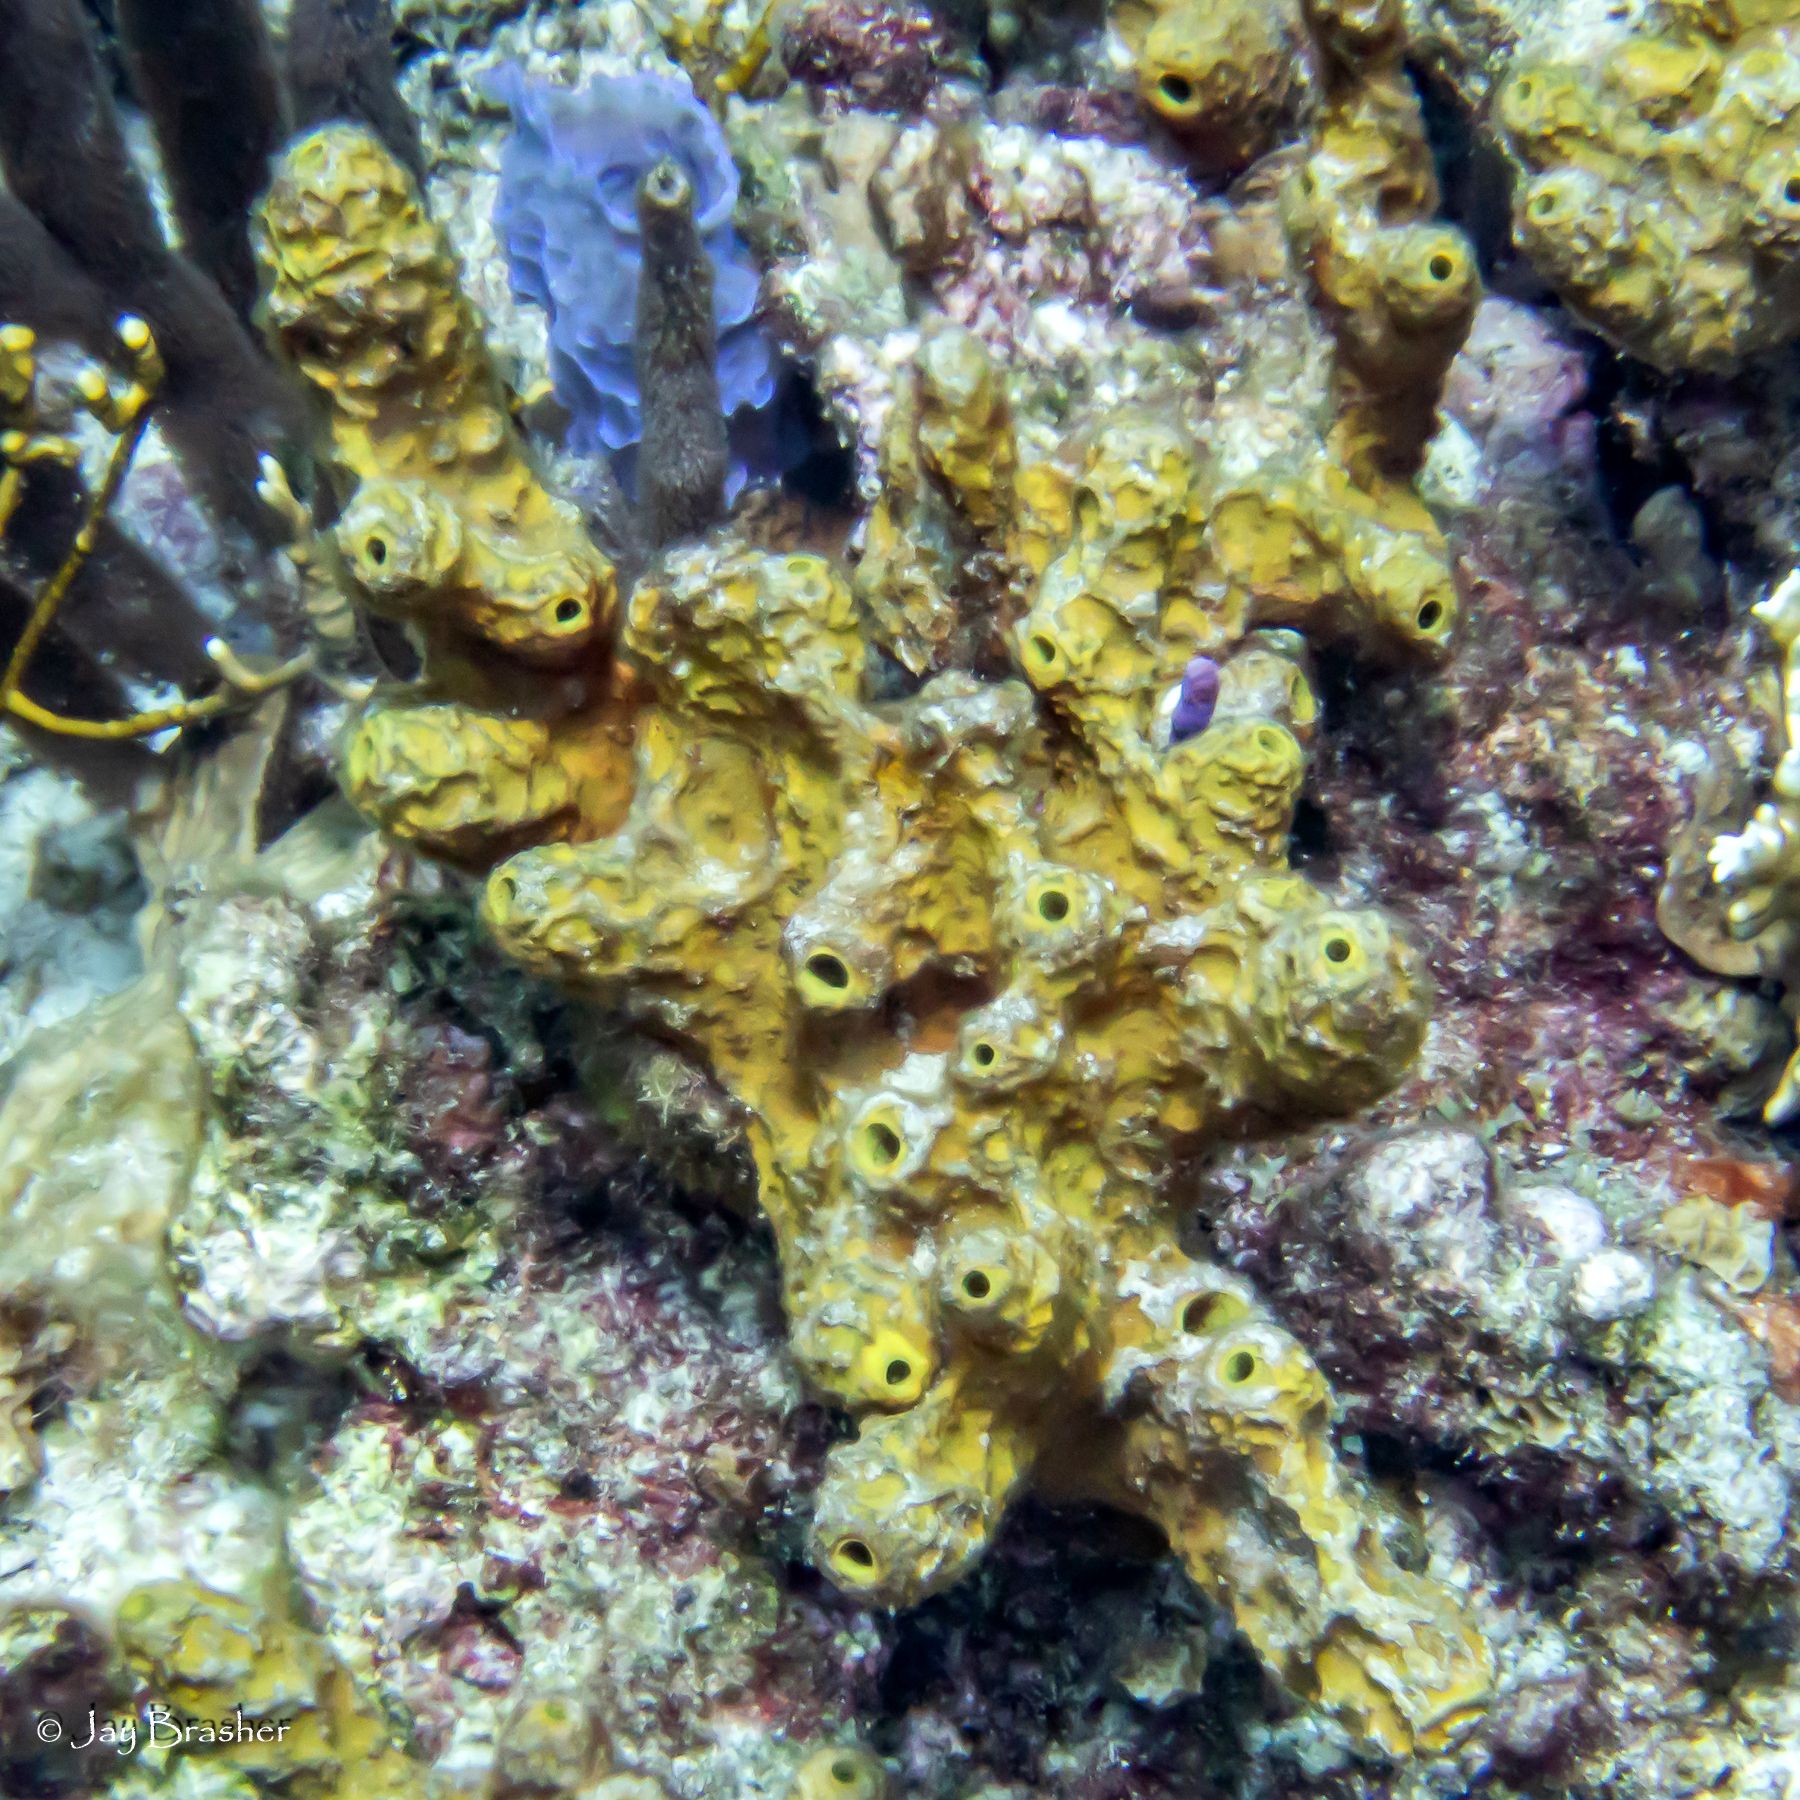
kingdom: Animalia
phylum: Porifera
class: Demospongiae
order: Verongiida
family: Aplysinidae
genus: Verongula
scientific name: Verongula rigida
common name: Pitted sponge
